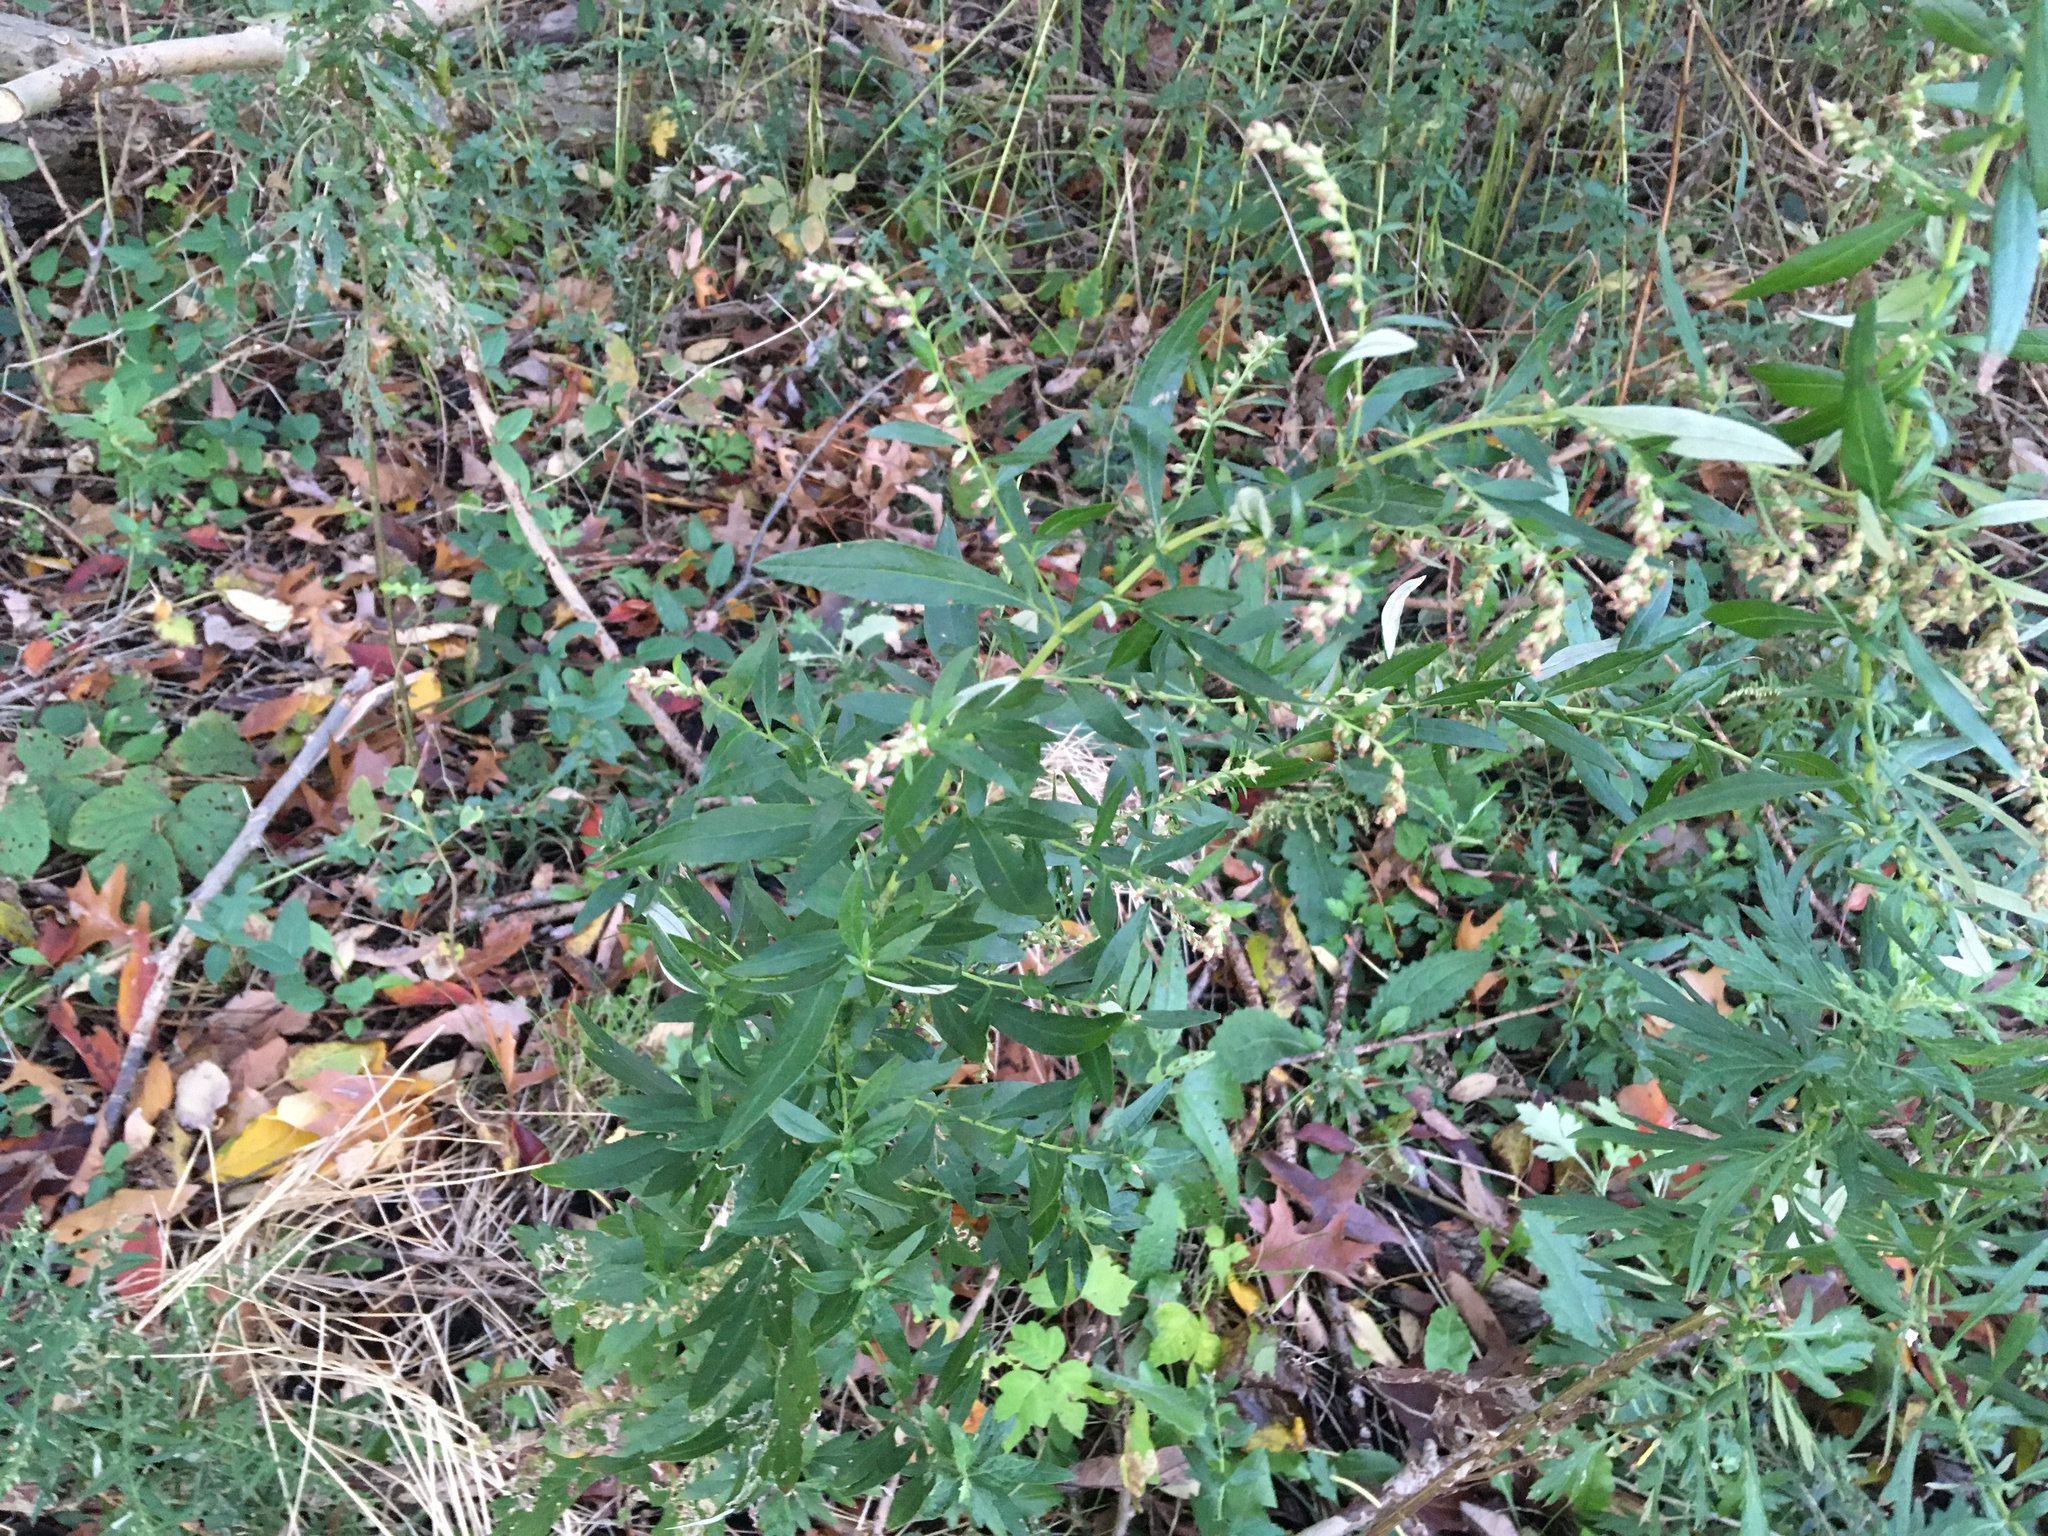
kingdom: Plantae
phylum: Tracheophyta
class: Magnoliopsida
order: Asterales
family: Asteraceae
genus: Artemisia
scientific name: Artemisia vulgaris
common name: Mugwort
